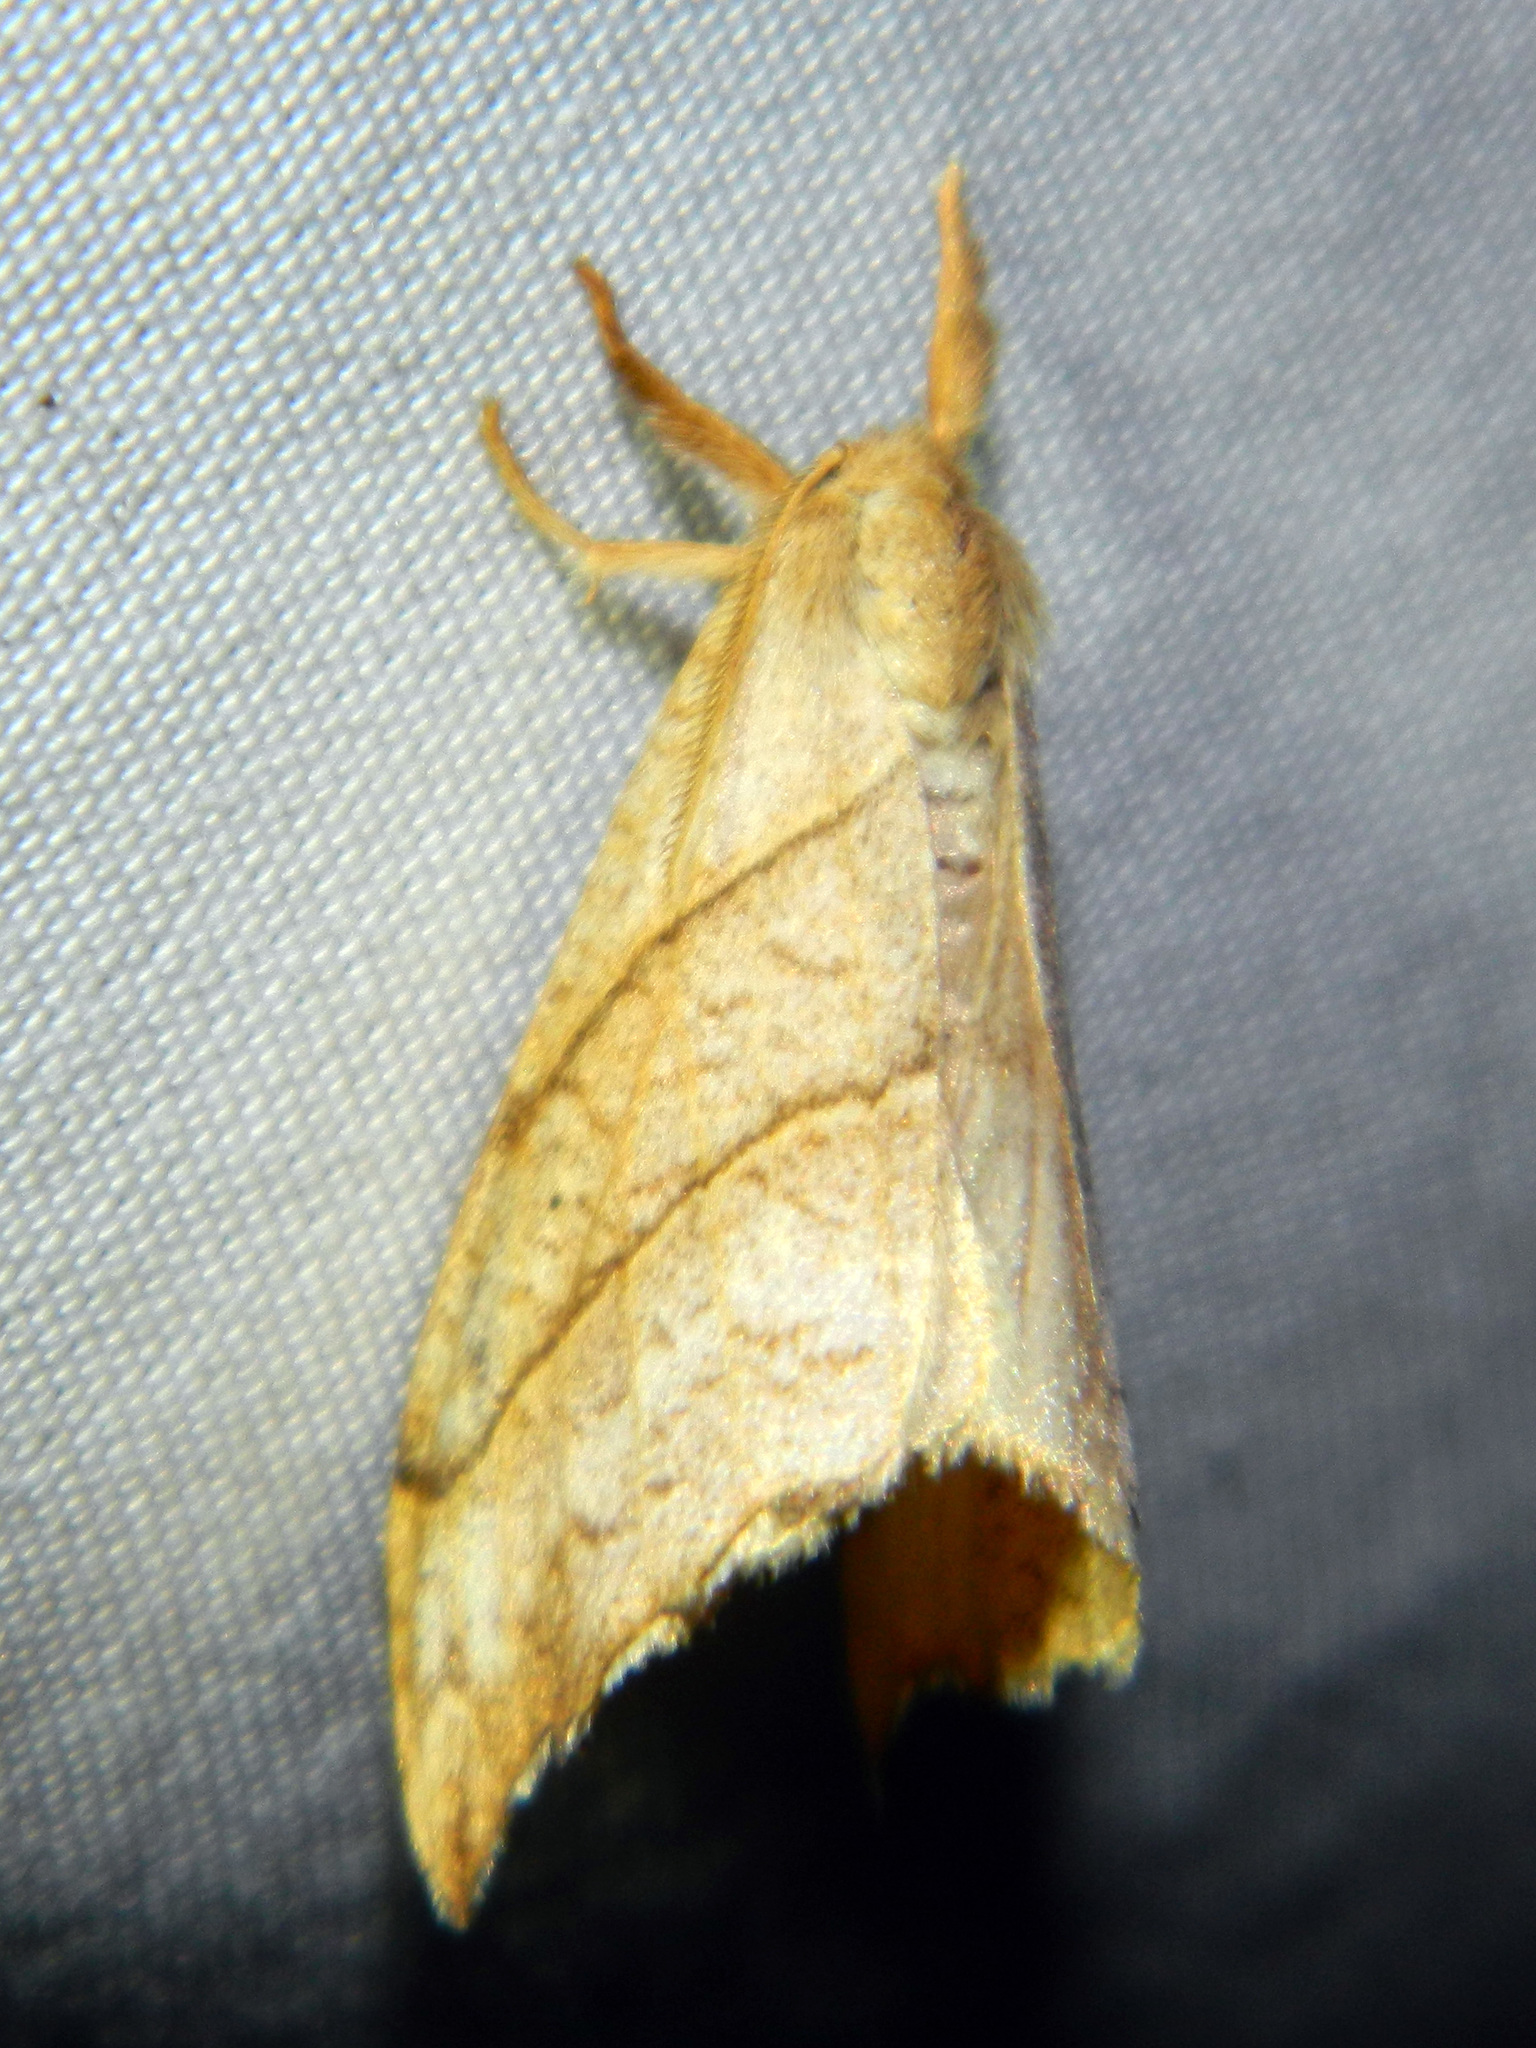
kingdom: Animalia
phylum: Arthropoda
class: Insecta
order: Lepidoptera
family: Drepanidae
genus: Falcaria
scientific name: Falcaria bilineata
